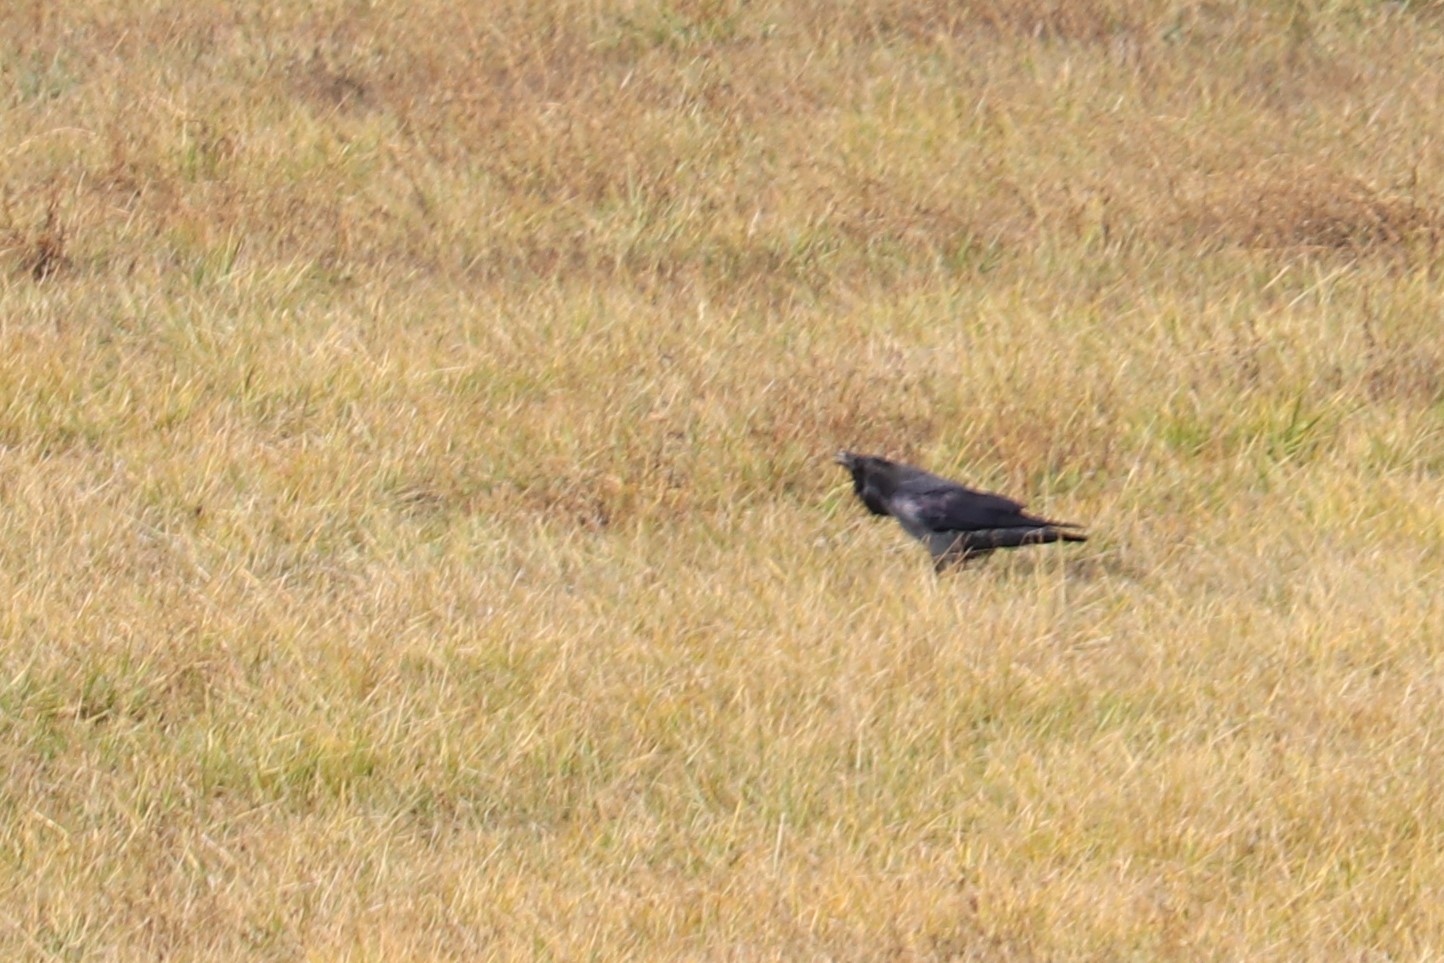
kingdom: Animalia
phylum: Chordata
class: Aves
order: Passeriformes
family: Corvidae
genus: Corvus
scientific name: Corvus corax
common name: Common raven
